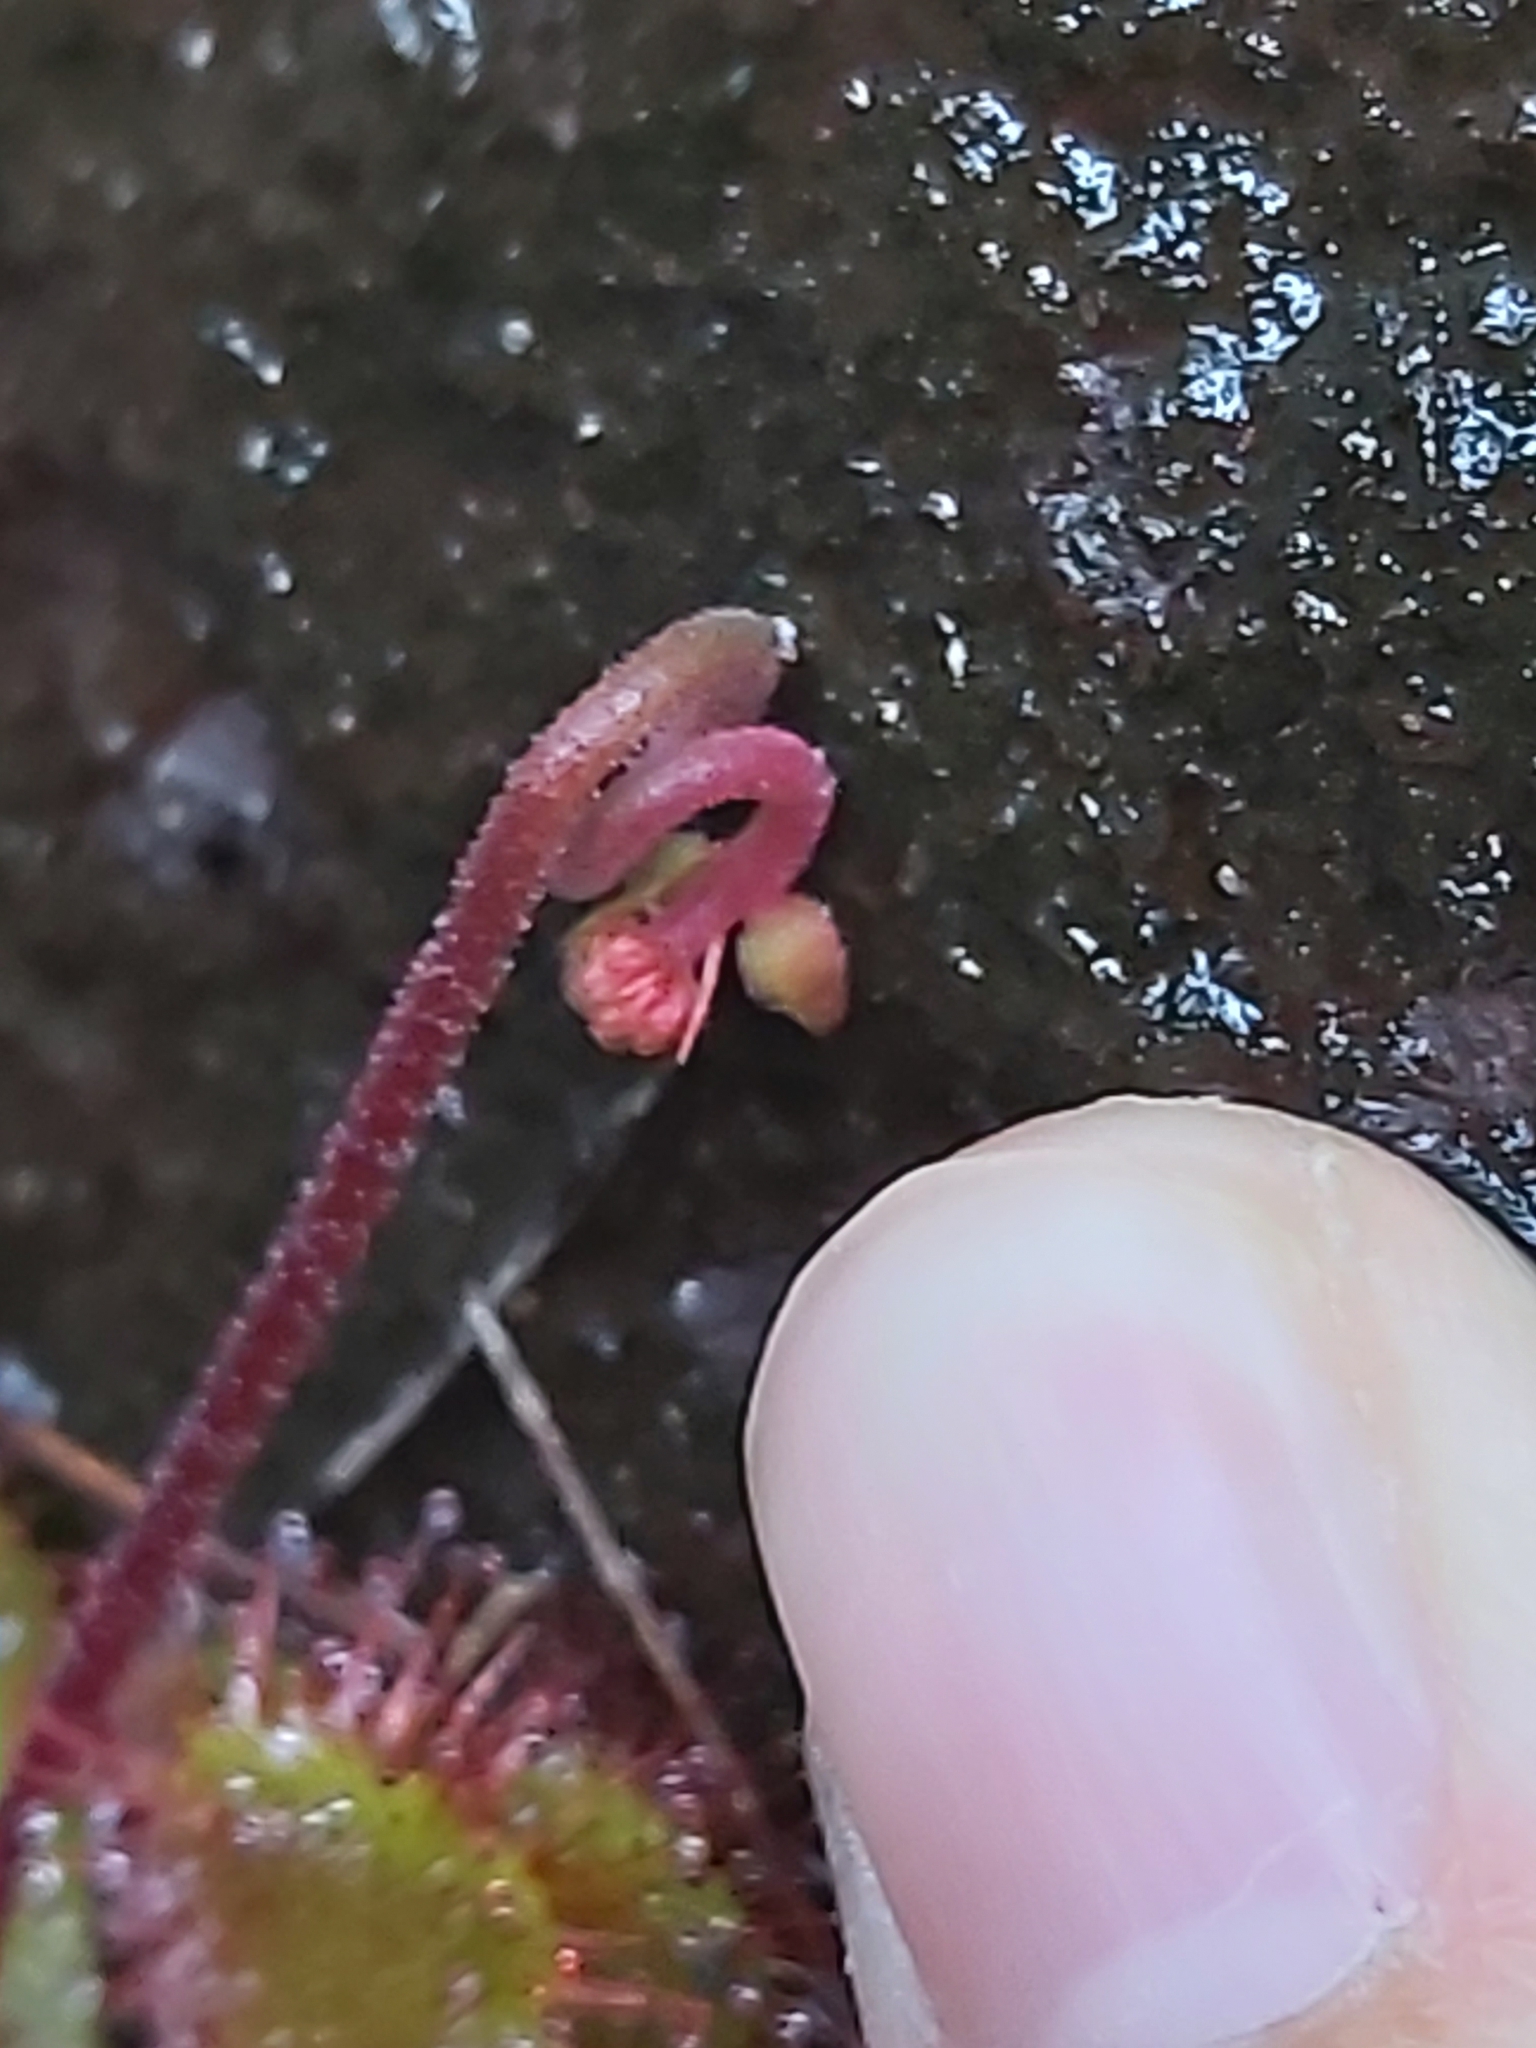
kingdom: Plantae
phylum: Tracheophyta
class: Magnoliopsida
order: Caryophyllales
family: Droseraceae
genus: Drosera
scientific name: Drosera spatulata
